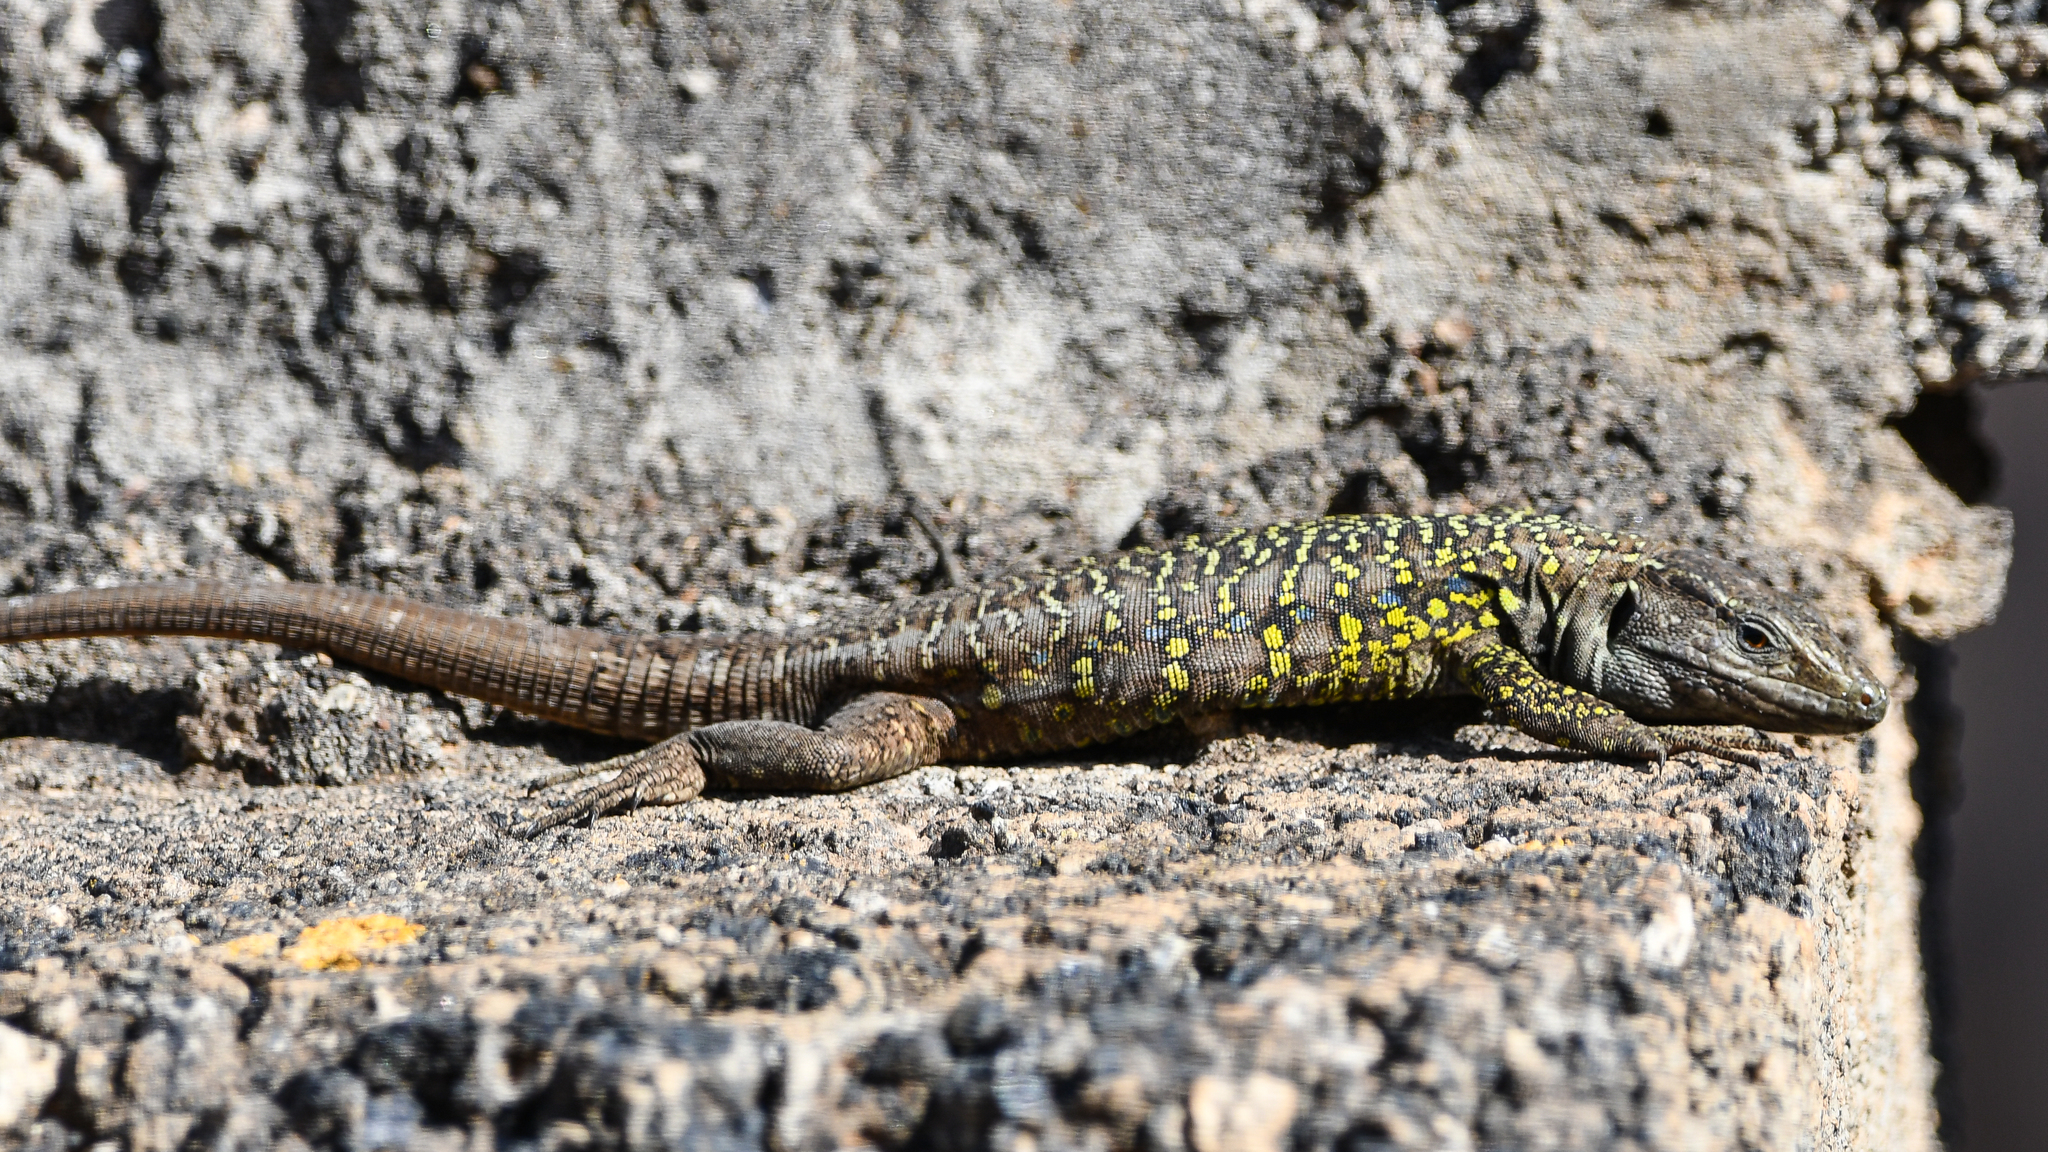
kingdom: Animalia
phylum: Chordata
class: Squamata
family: Lacertidae
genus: Gallotia
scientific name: Gallotia galloti
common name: Gallot's lizard
